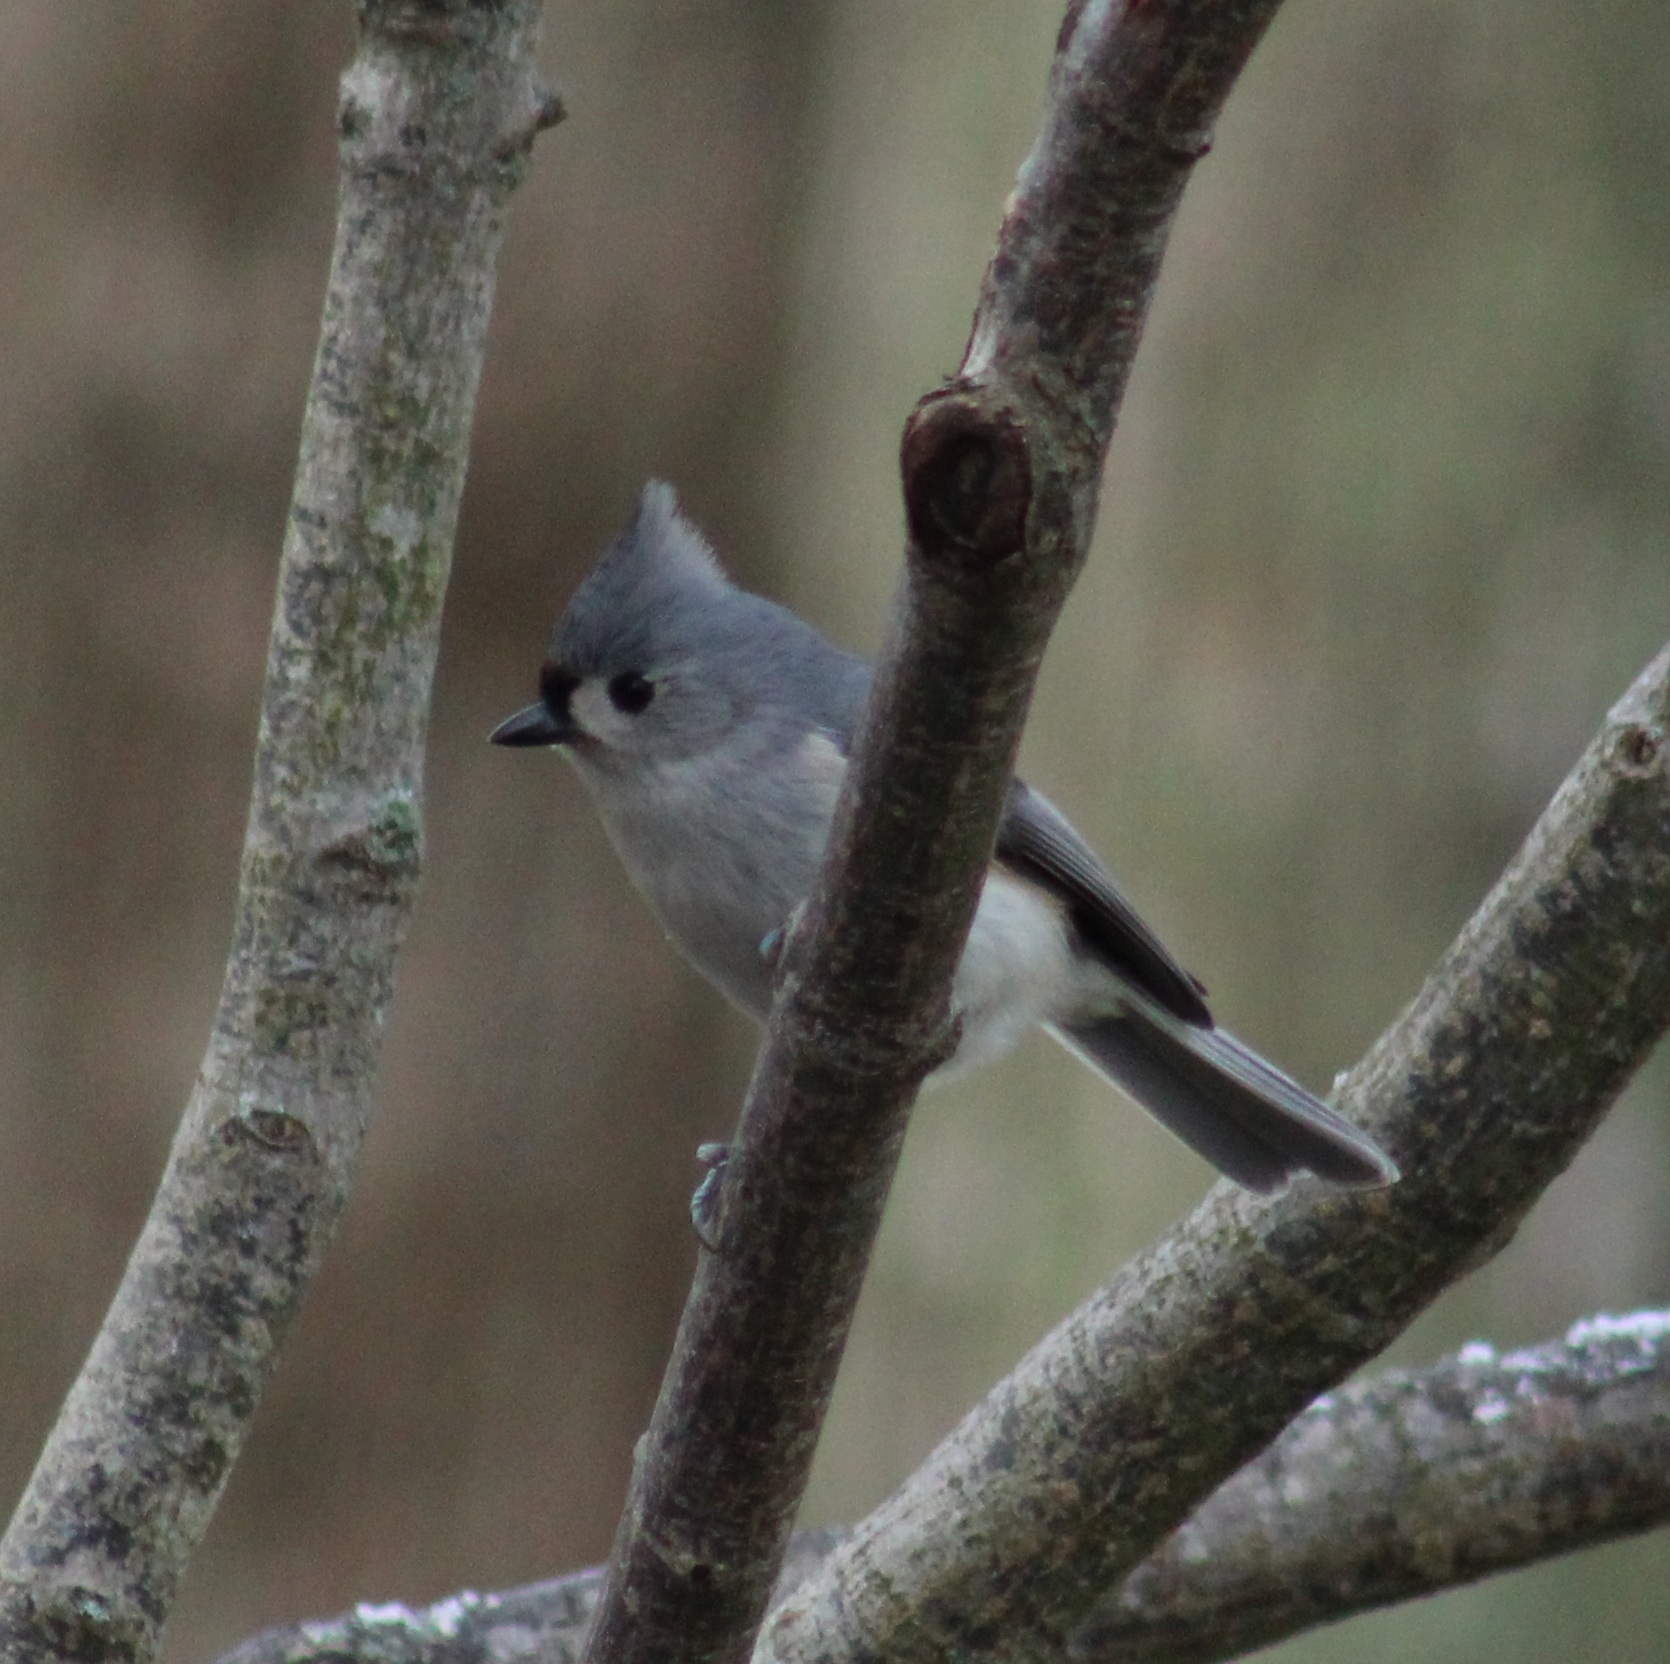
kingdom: Animalia
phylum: Chordata
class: Aves
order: Passeriformes
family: Paridae
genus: Baeolophus
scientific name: Baeolophus bicolor
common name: Tufted titmouse
